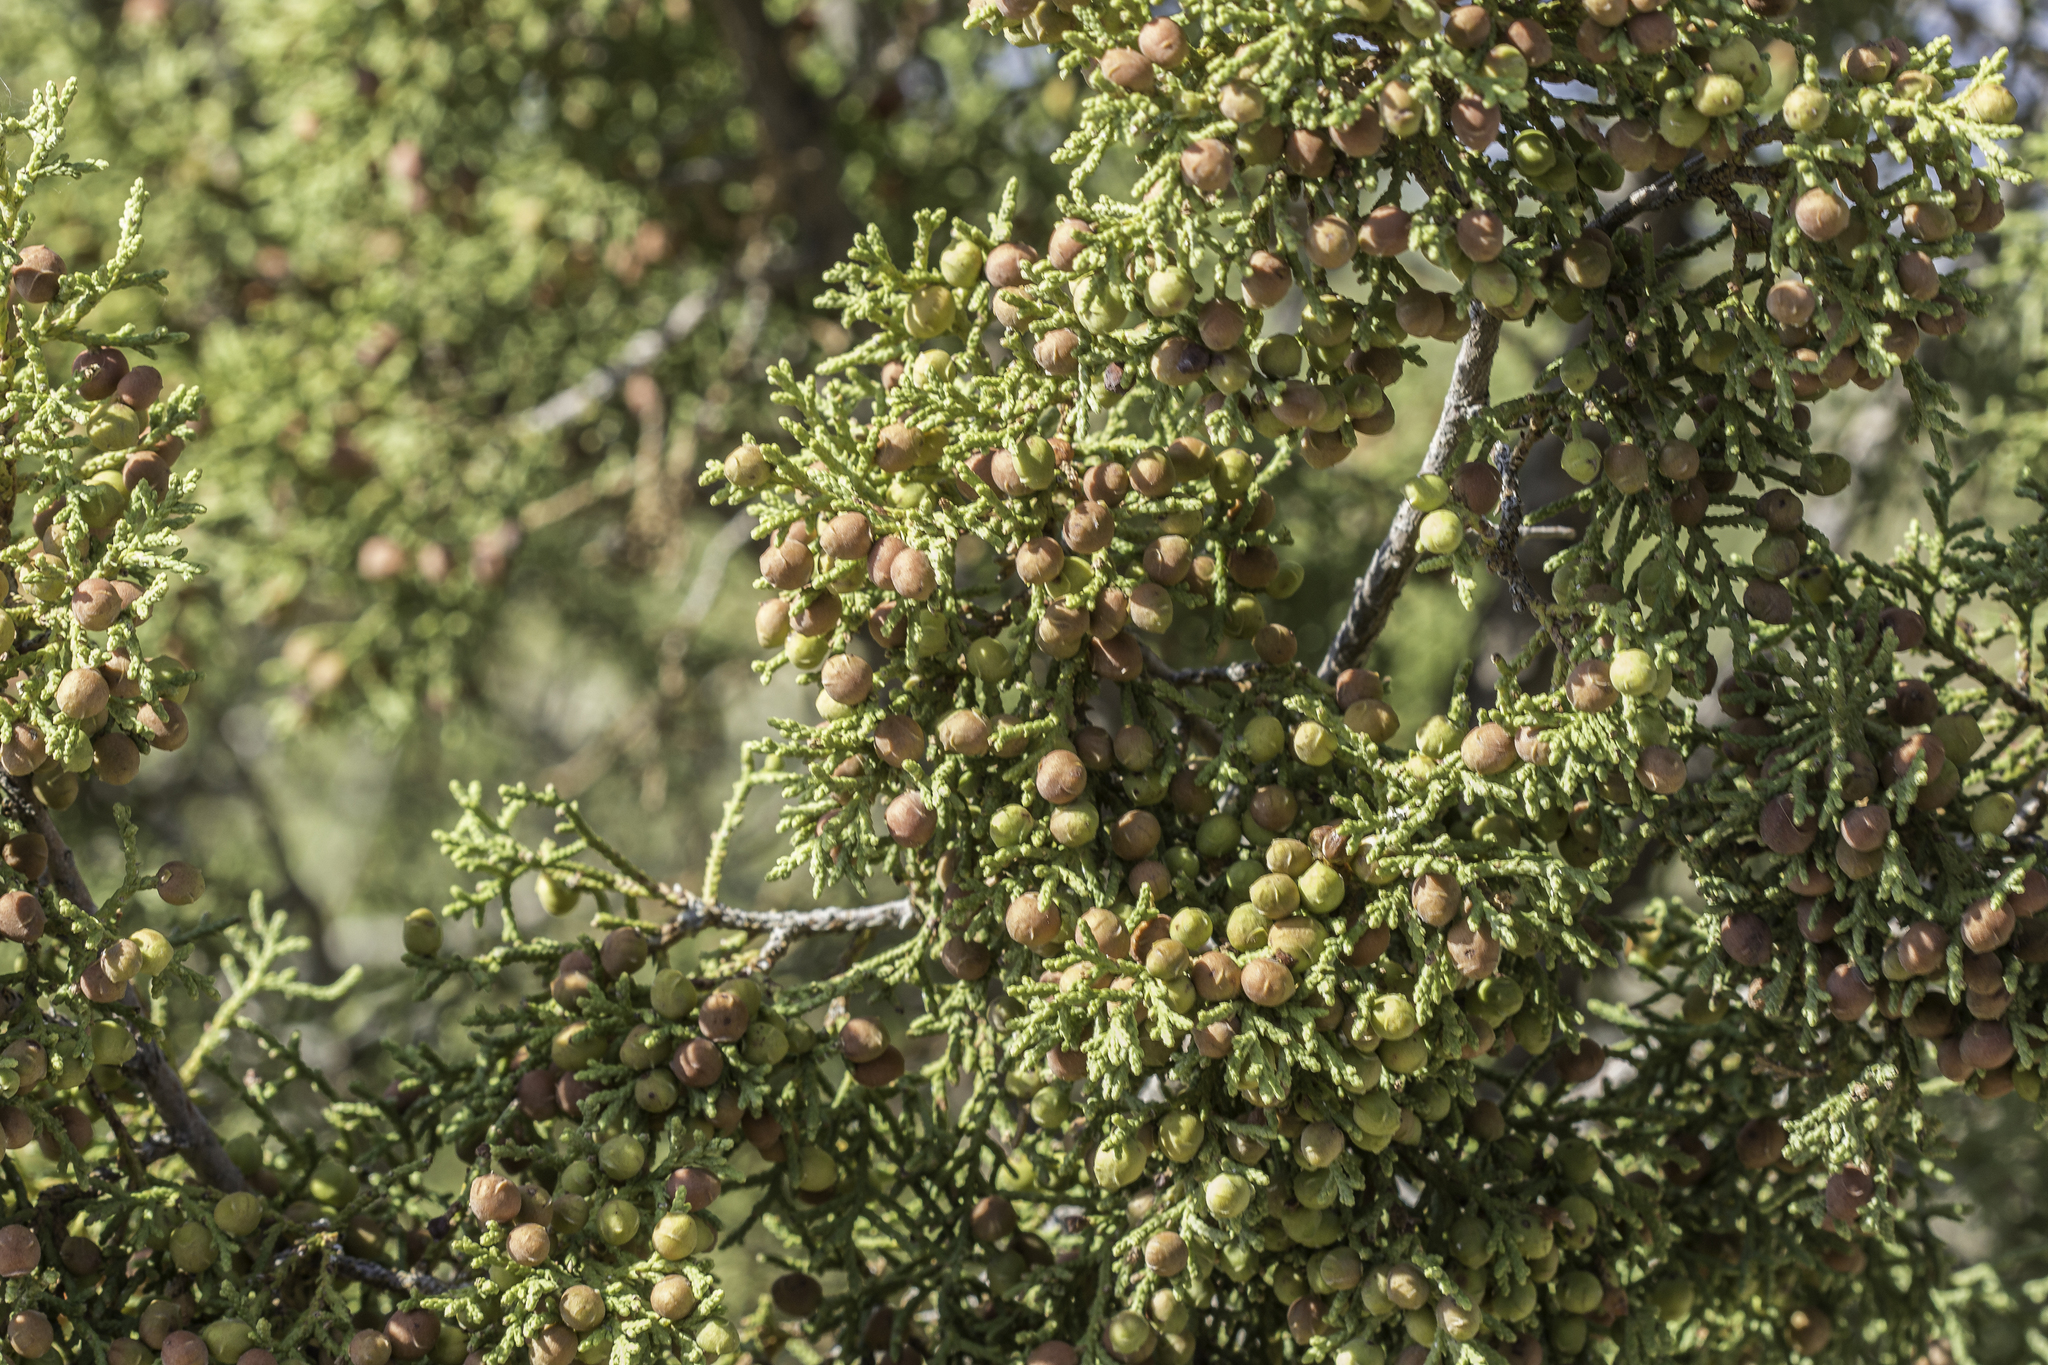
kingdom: Plantae
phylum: Tracheophyta
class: Pinopsida
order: Pinales
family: Cupressaceae
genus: Juniperus
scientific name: Juniperus pinchotii
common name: Pinchot juniper
